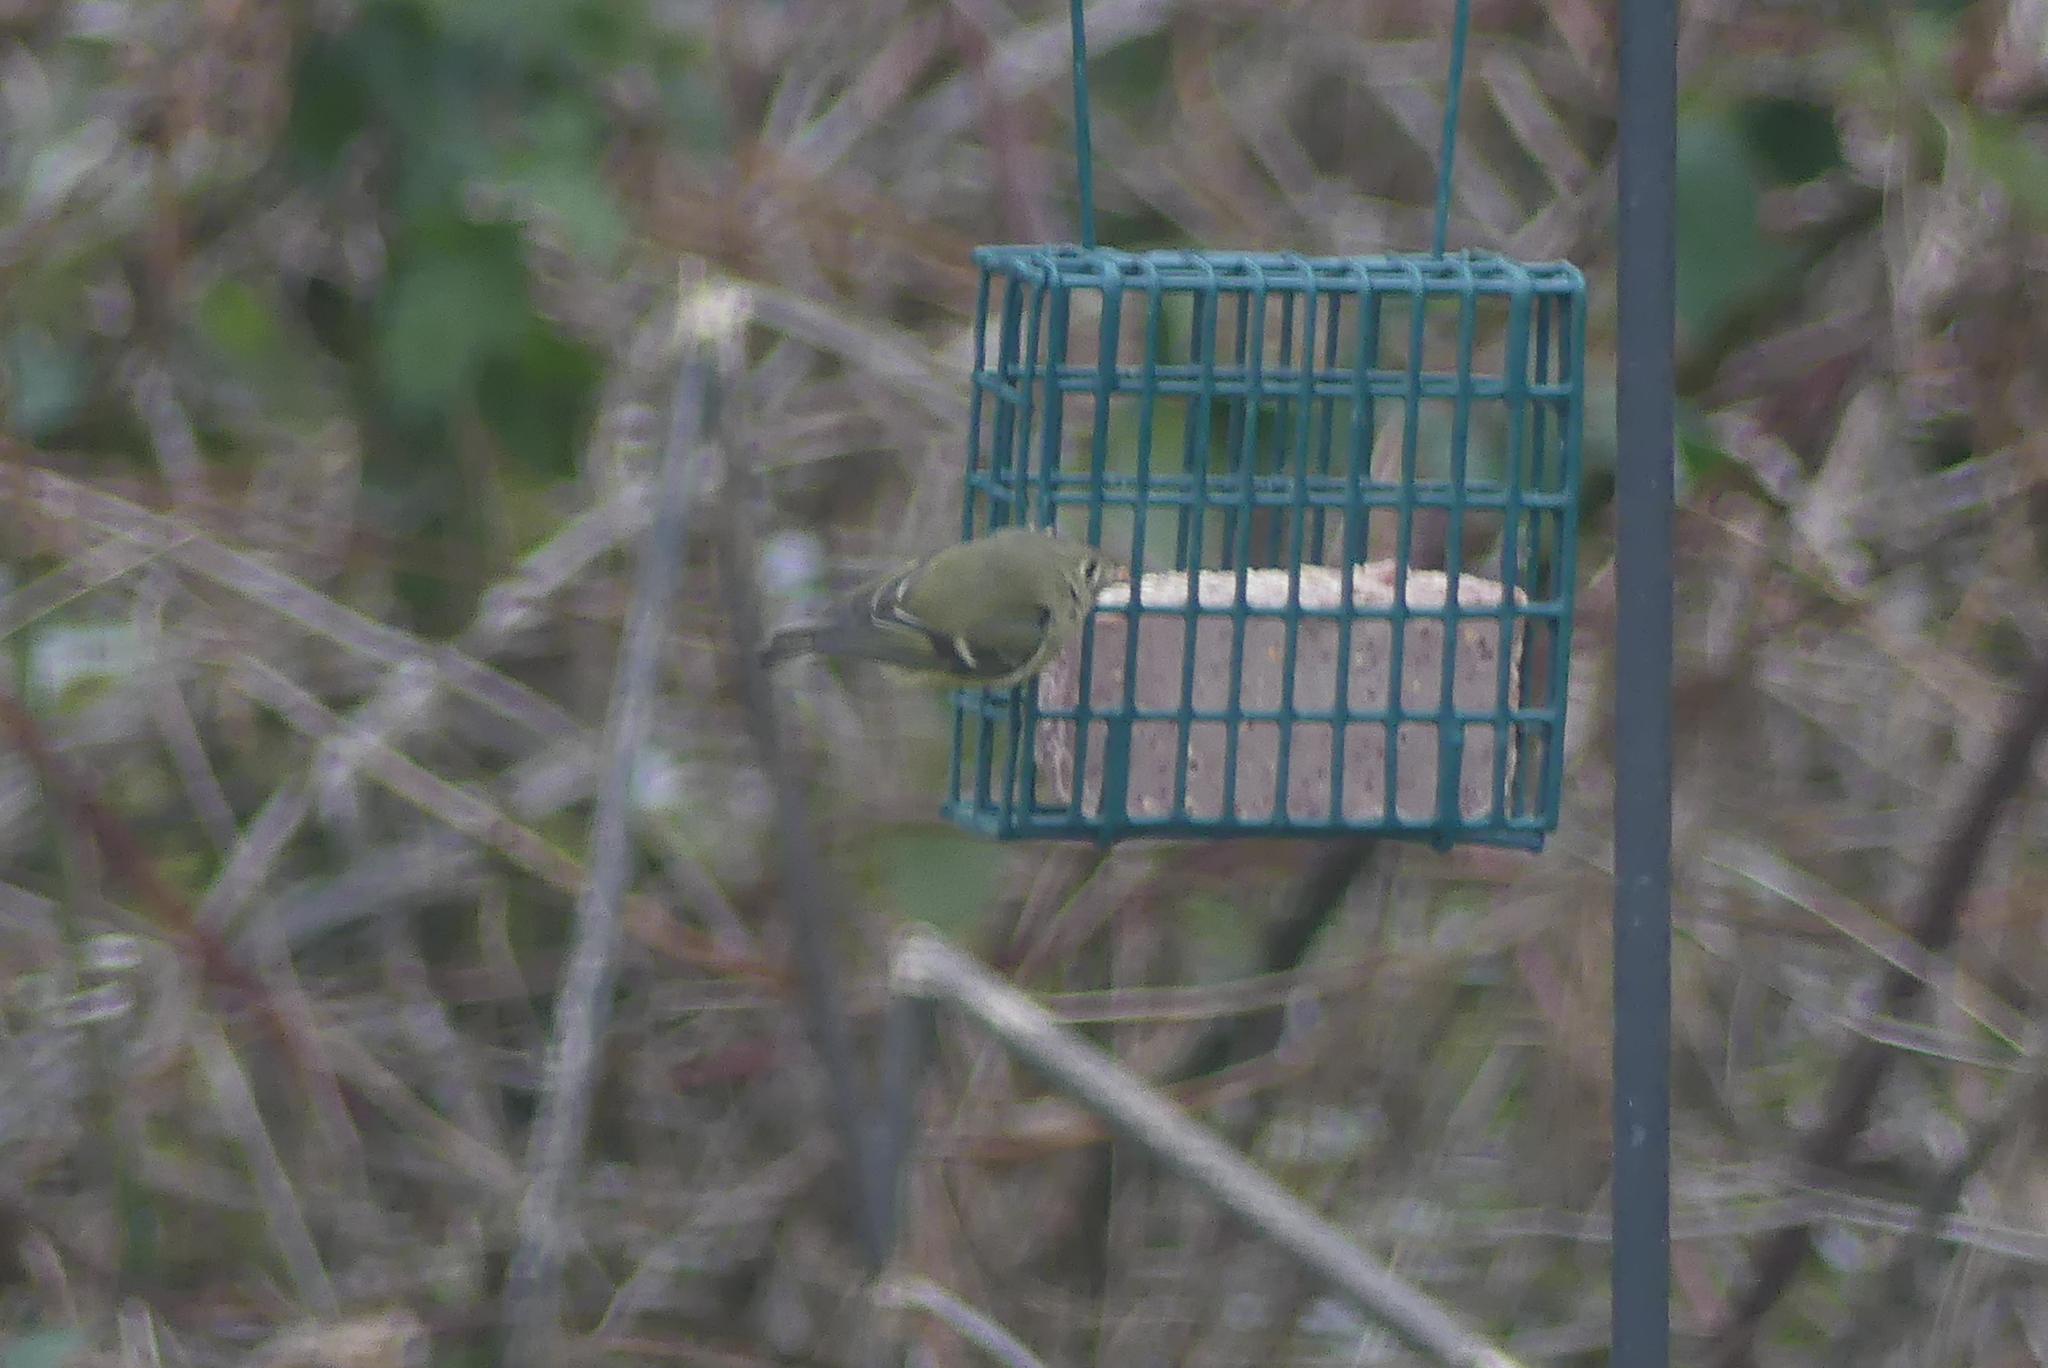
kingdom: Animalia
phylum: Chordata
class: Aves
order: Passeriformes
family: Regulidae
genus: Regulus
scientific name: Regulus calendula
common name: Ruby-crowned kinglet
